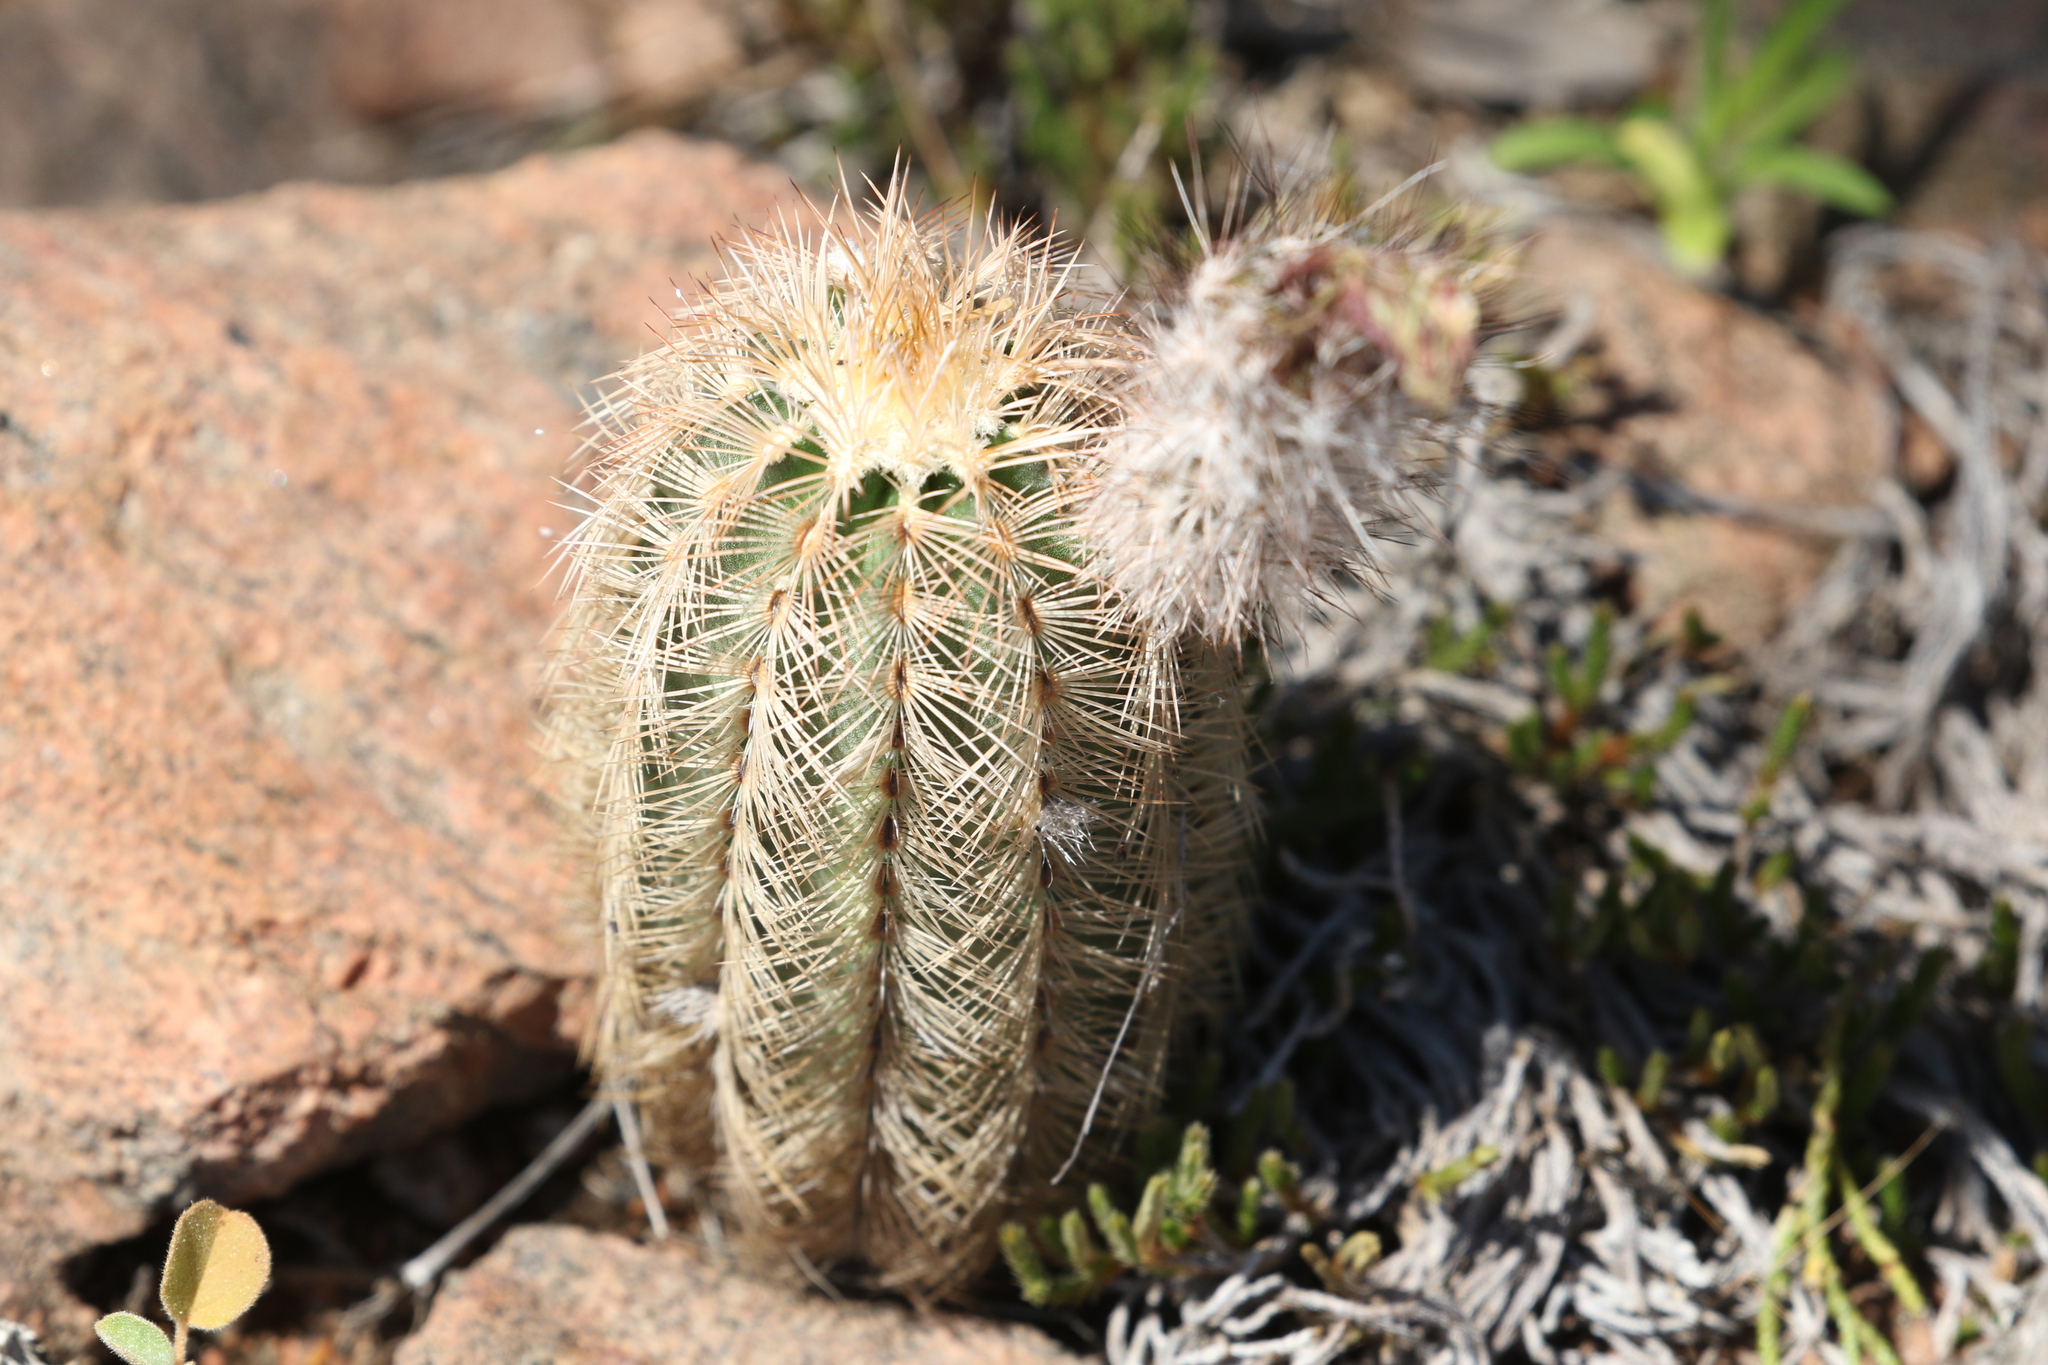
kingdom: Plantae
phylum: Tracheophyta
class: Magnoliopsida
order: Caryophyllales
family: Cactaceae
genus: Echinocereus
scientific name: Echinocereus reichenbachii
